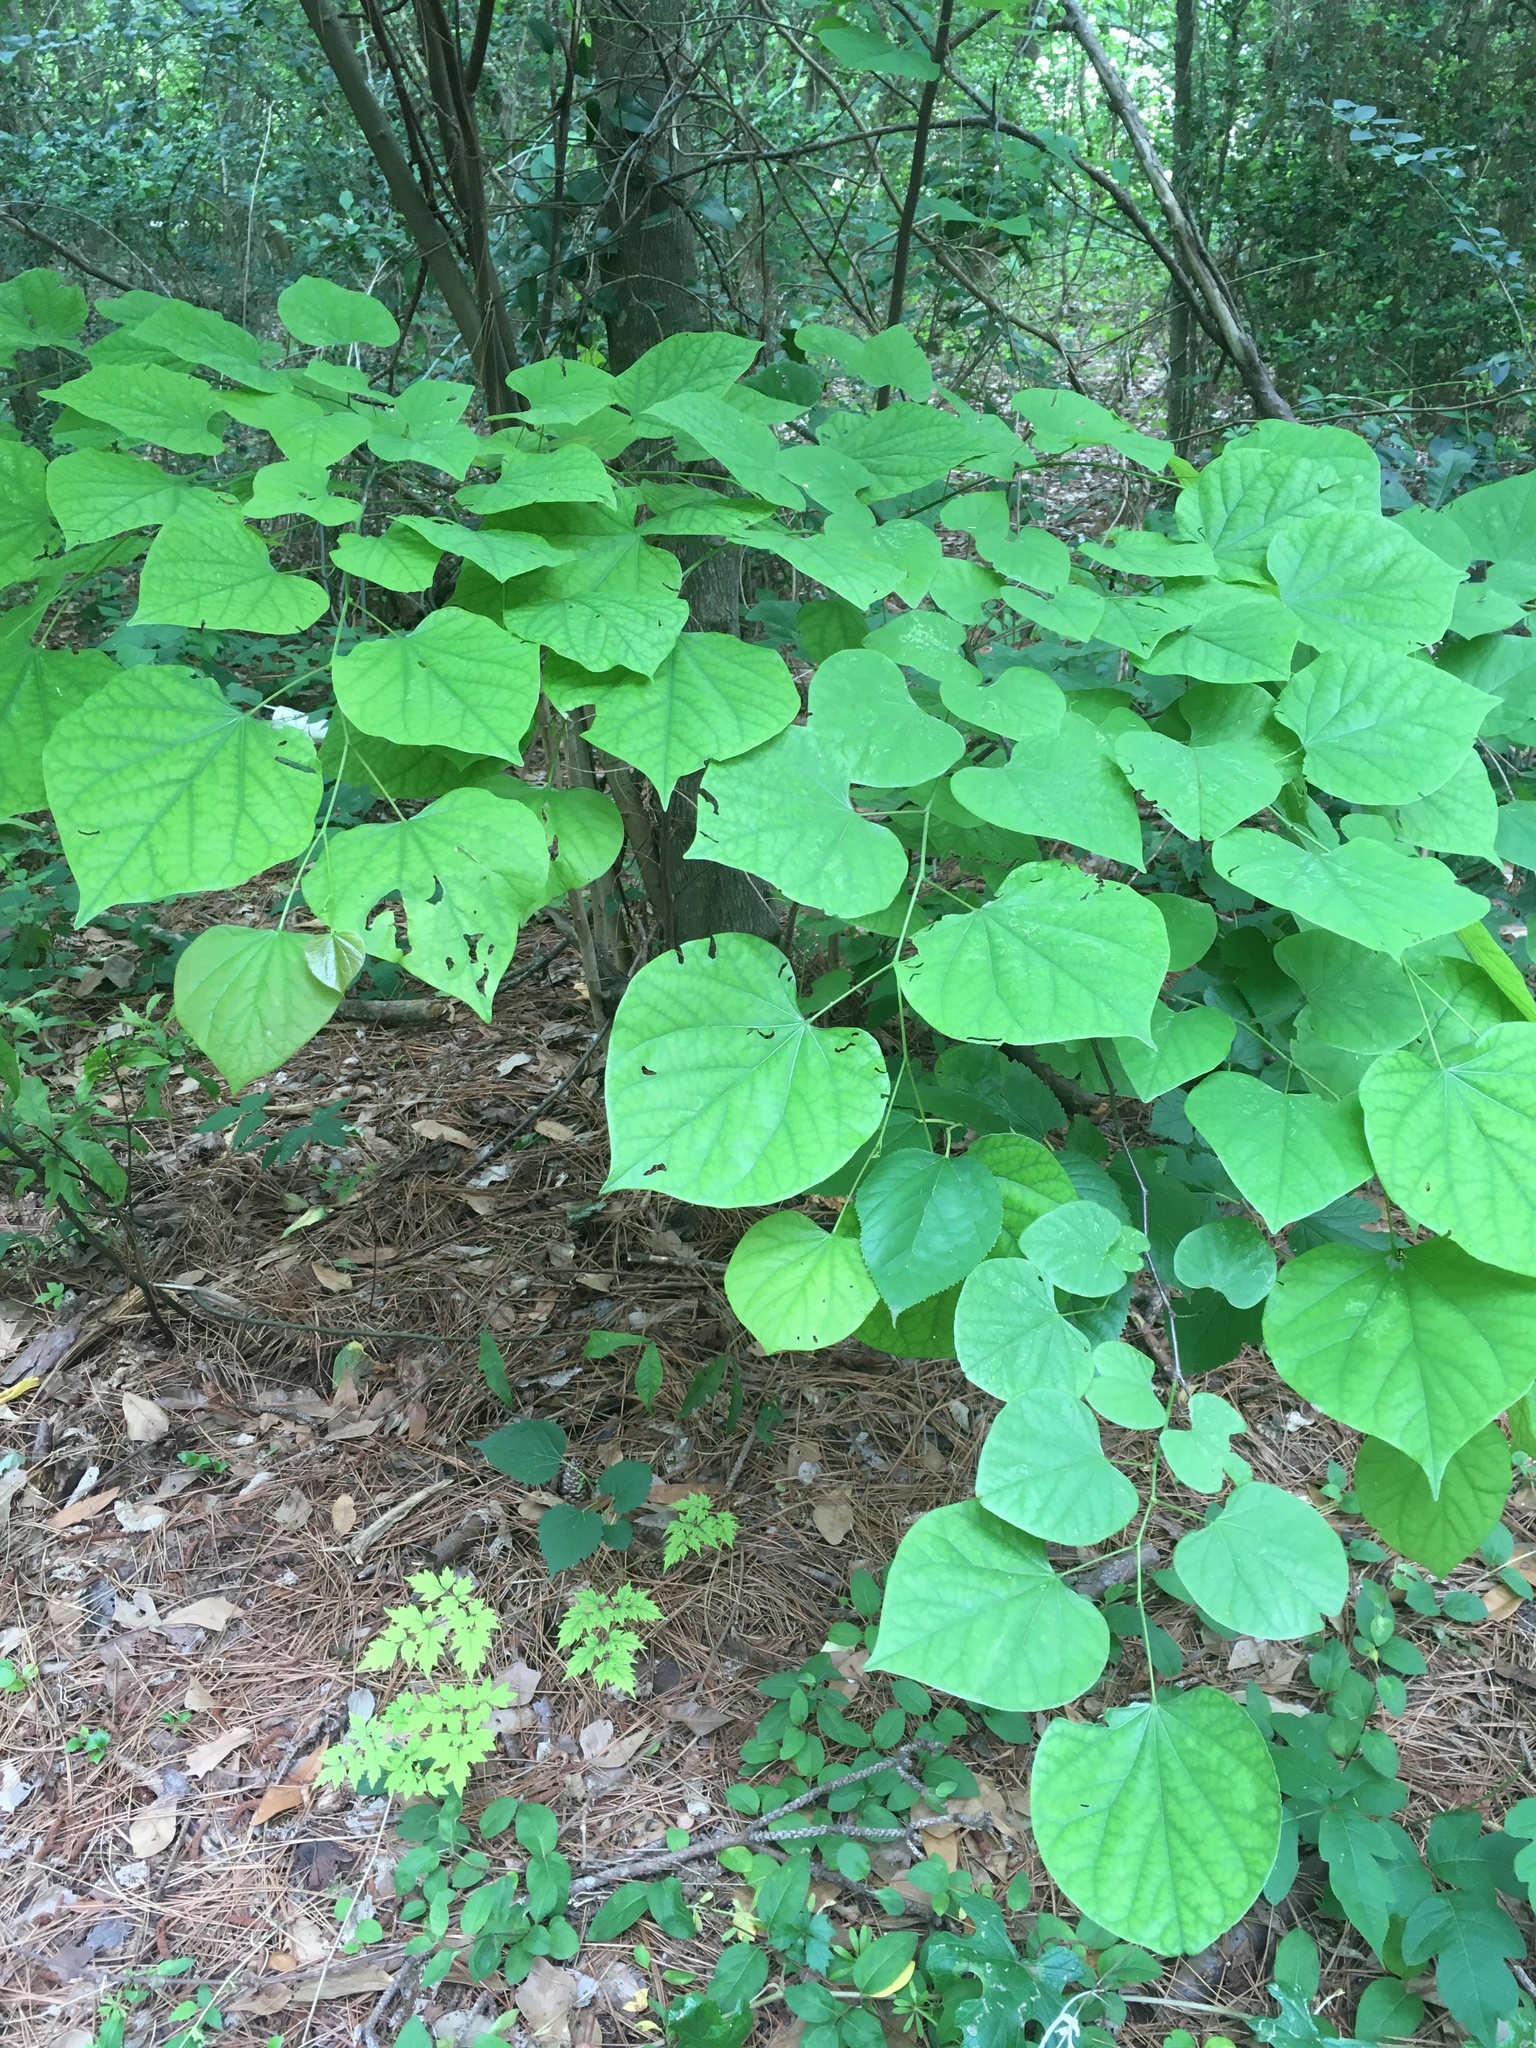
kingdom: Plantae
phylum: Tracheophyta
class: Magnoliopsida
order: Fabales
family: Fabaceae
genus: Cercis
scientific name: Cercis canadensis
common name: Eastern redbud
